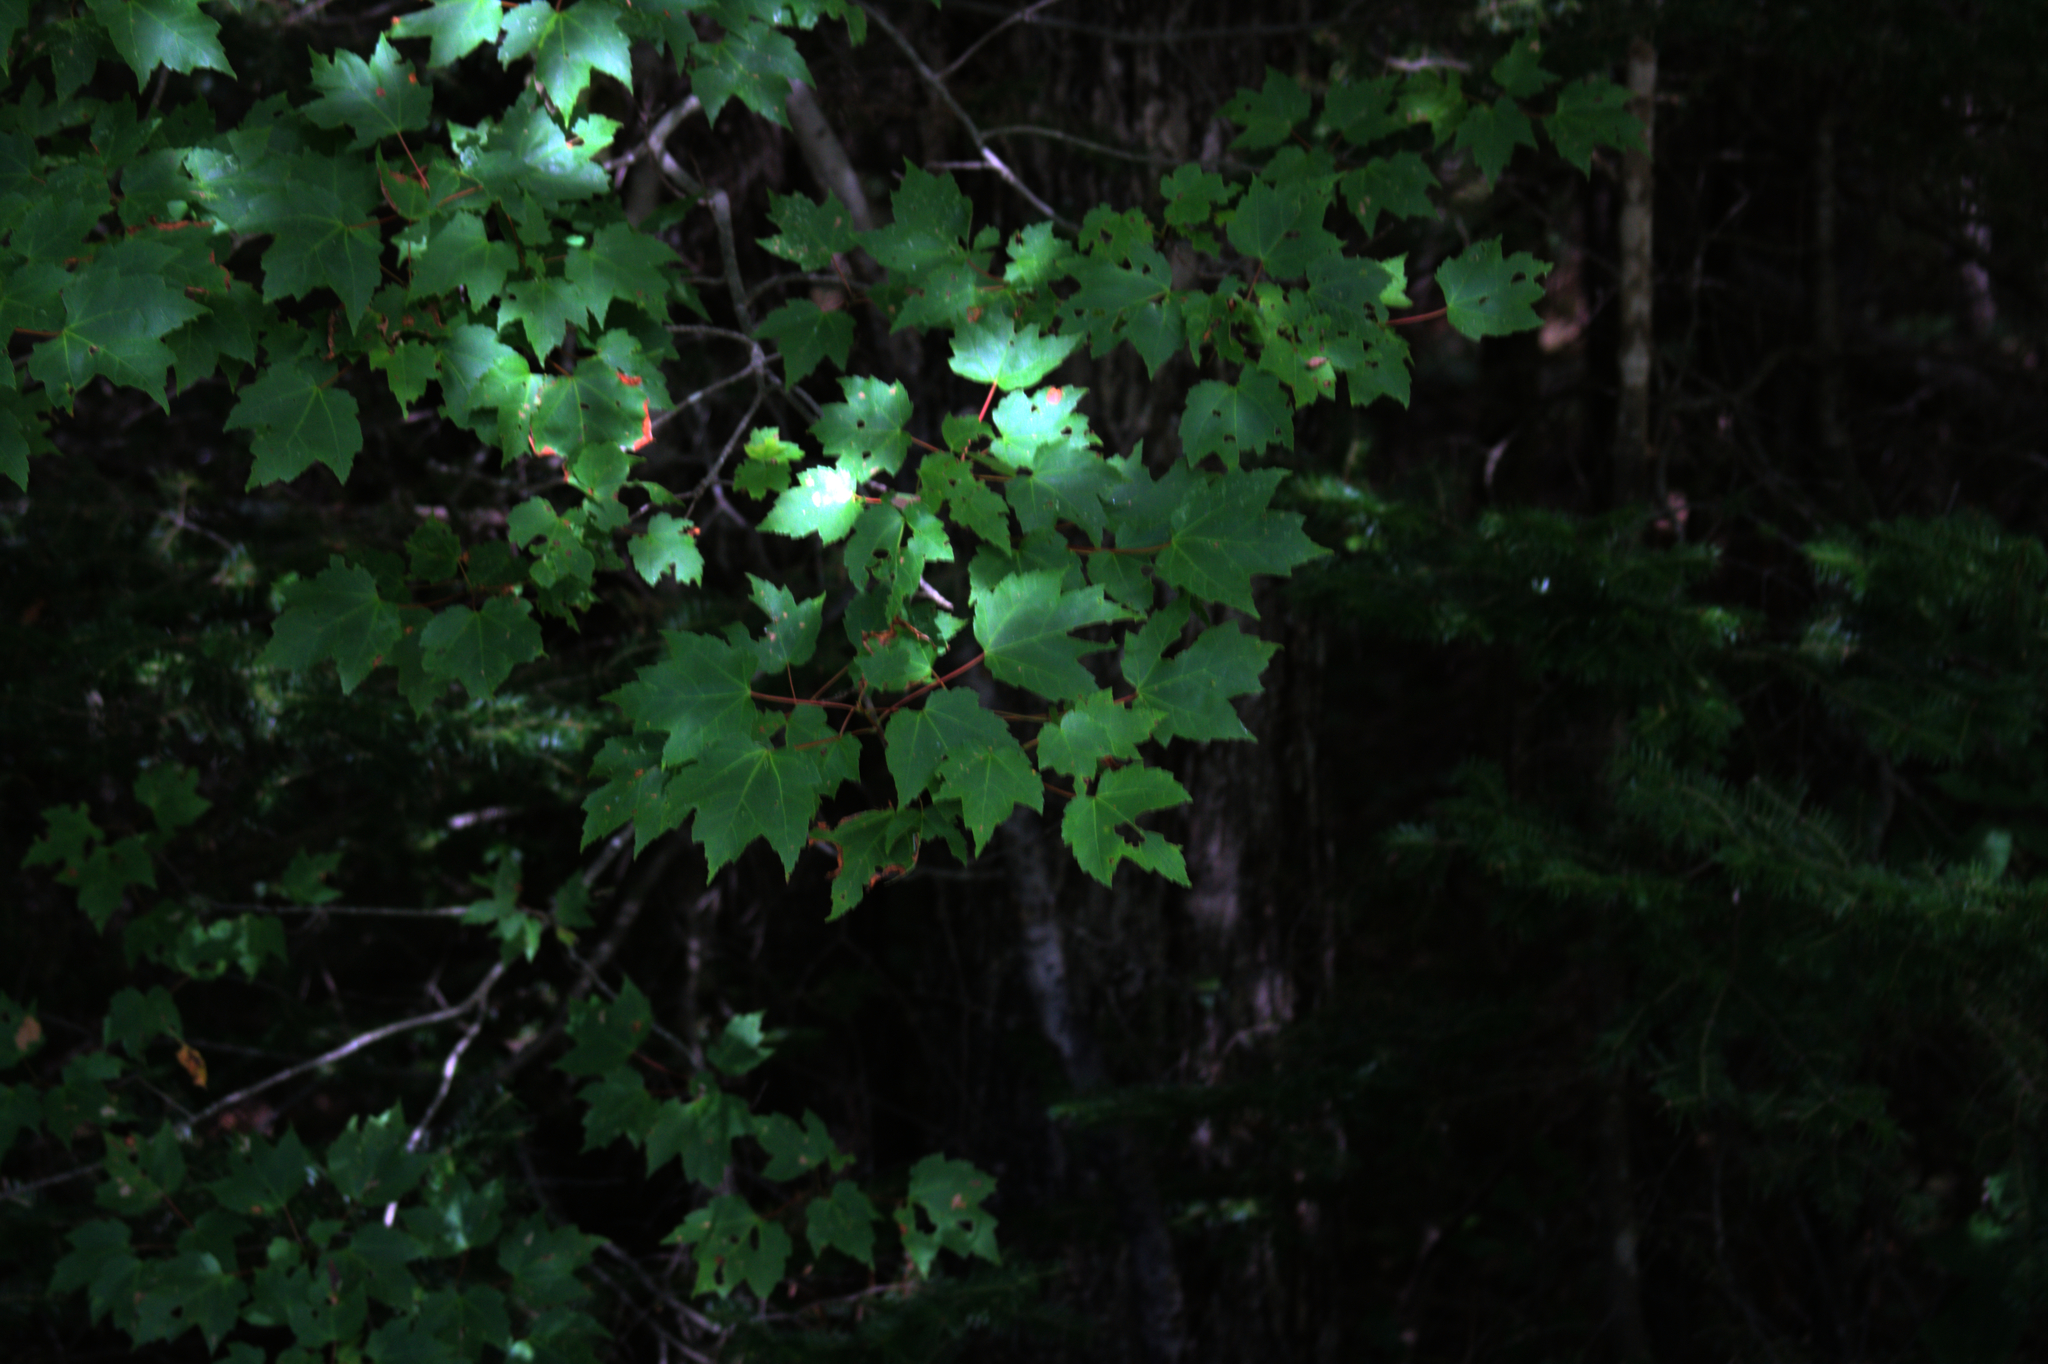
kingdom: Plantae
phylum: Tracheophyta
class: Magnoliopsida
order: Sapindales
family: Sapindaceae
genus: Acer
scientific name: Acer rubrum
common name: Red maple
